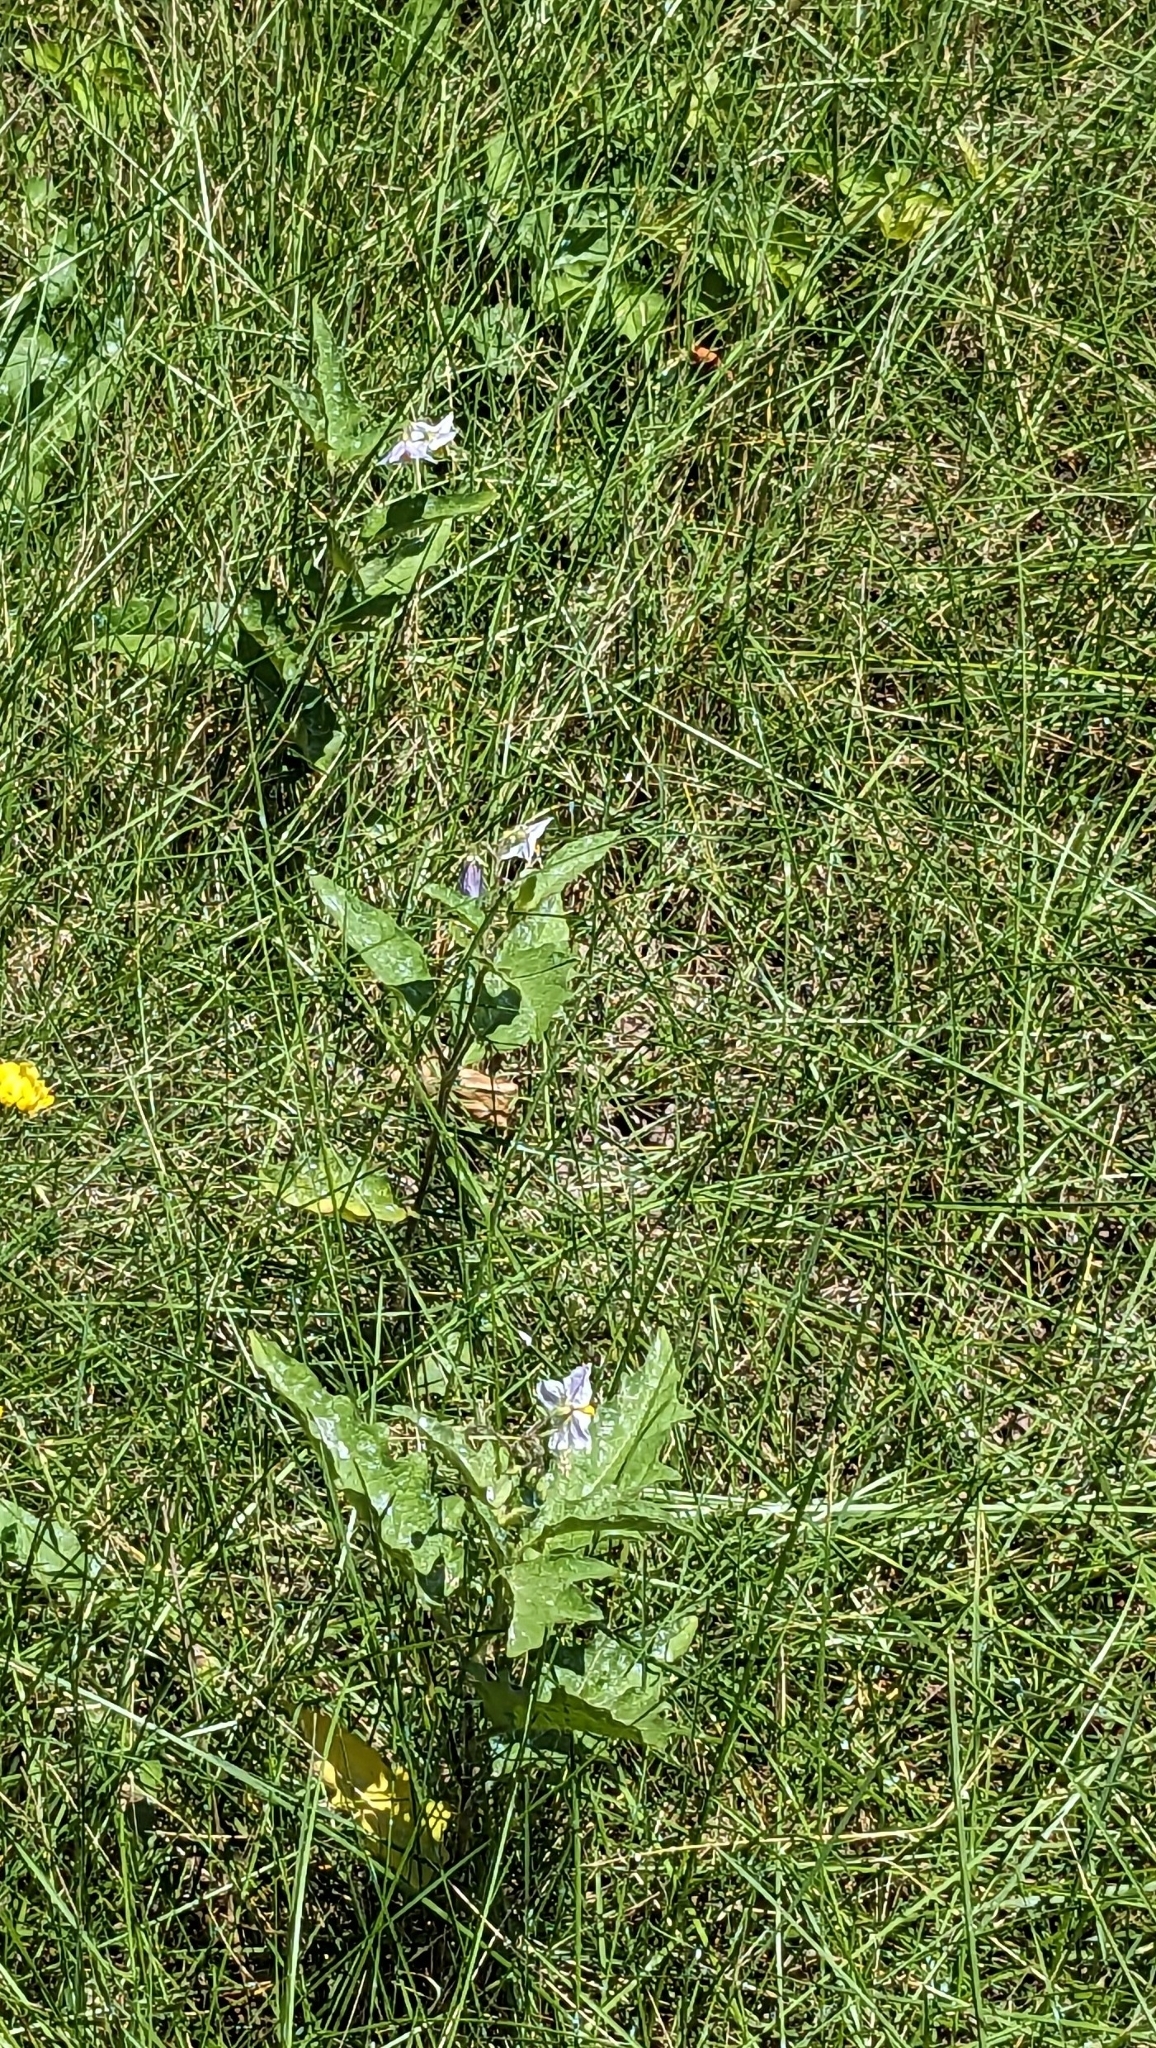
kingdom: Plantae
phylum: Tracheophyta
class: Magnoliopsida
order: Solanales
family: Solanaceae
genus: Solanum
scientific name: Solanum carolinense
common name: Horse-nettle
